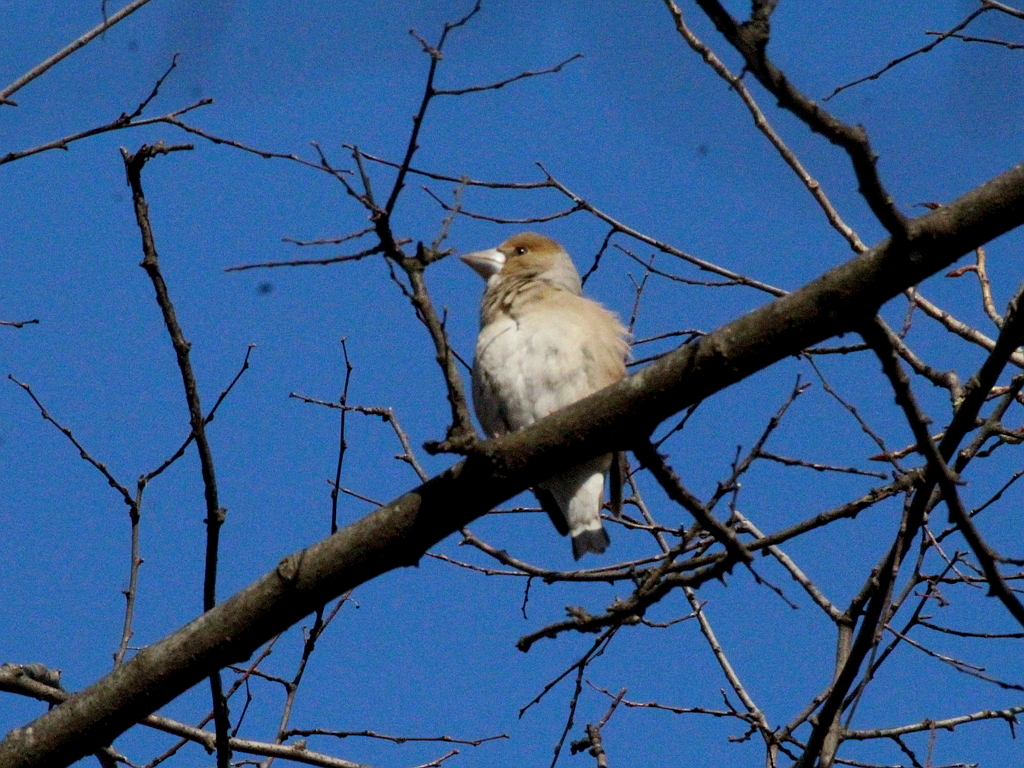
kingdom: Animalia
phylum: Chordata
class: Aves
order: Passeriformes
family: Fringillidae
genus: Coccothraustes
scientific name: Coccothraustes coccothraustes
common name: Hawfinch
